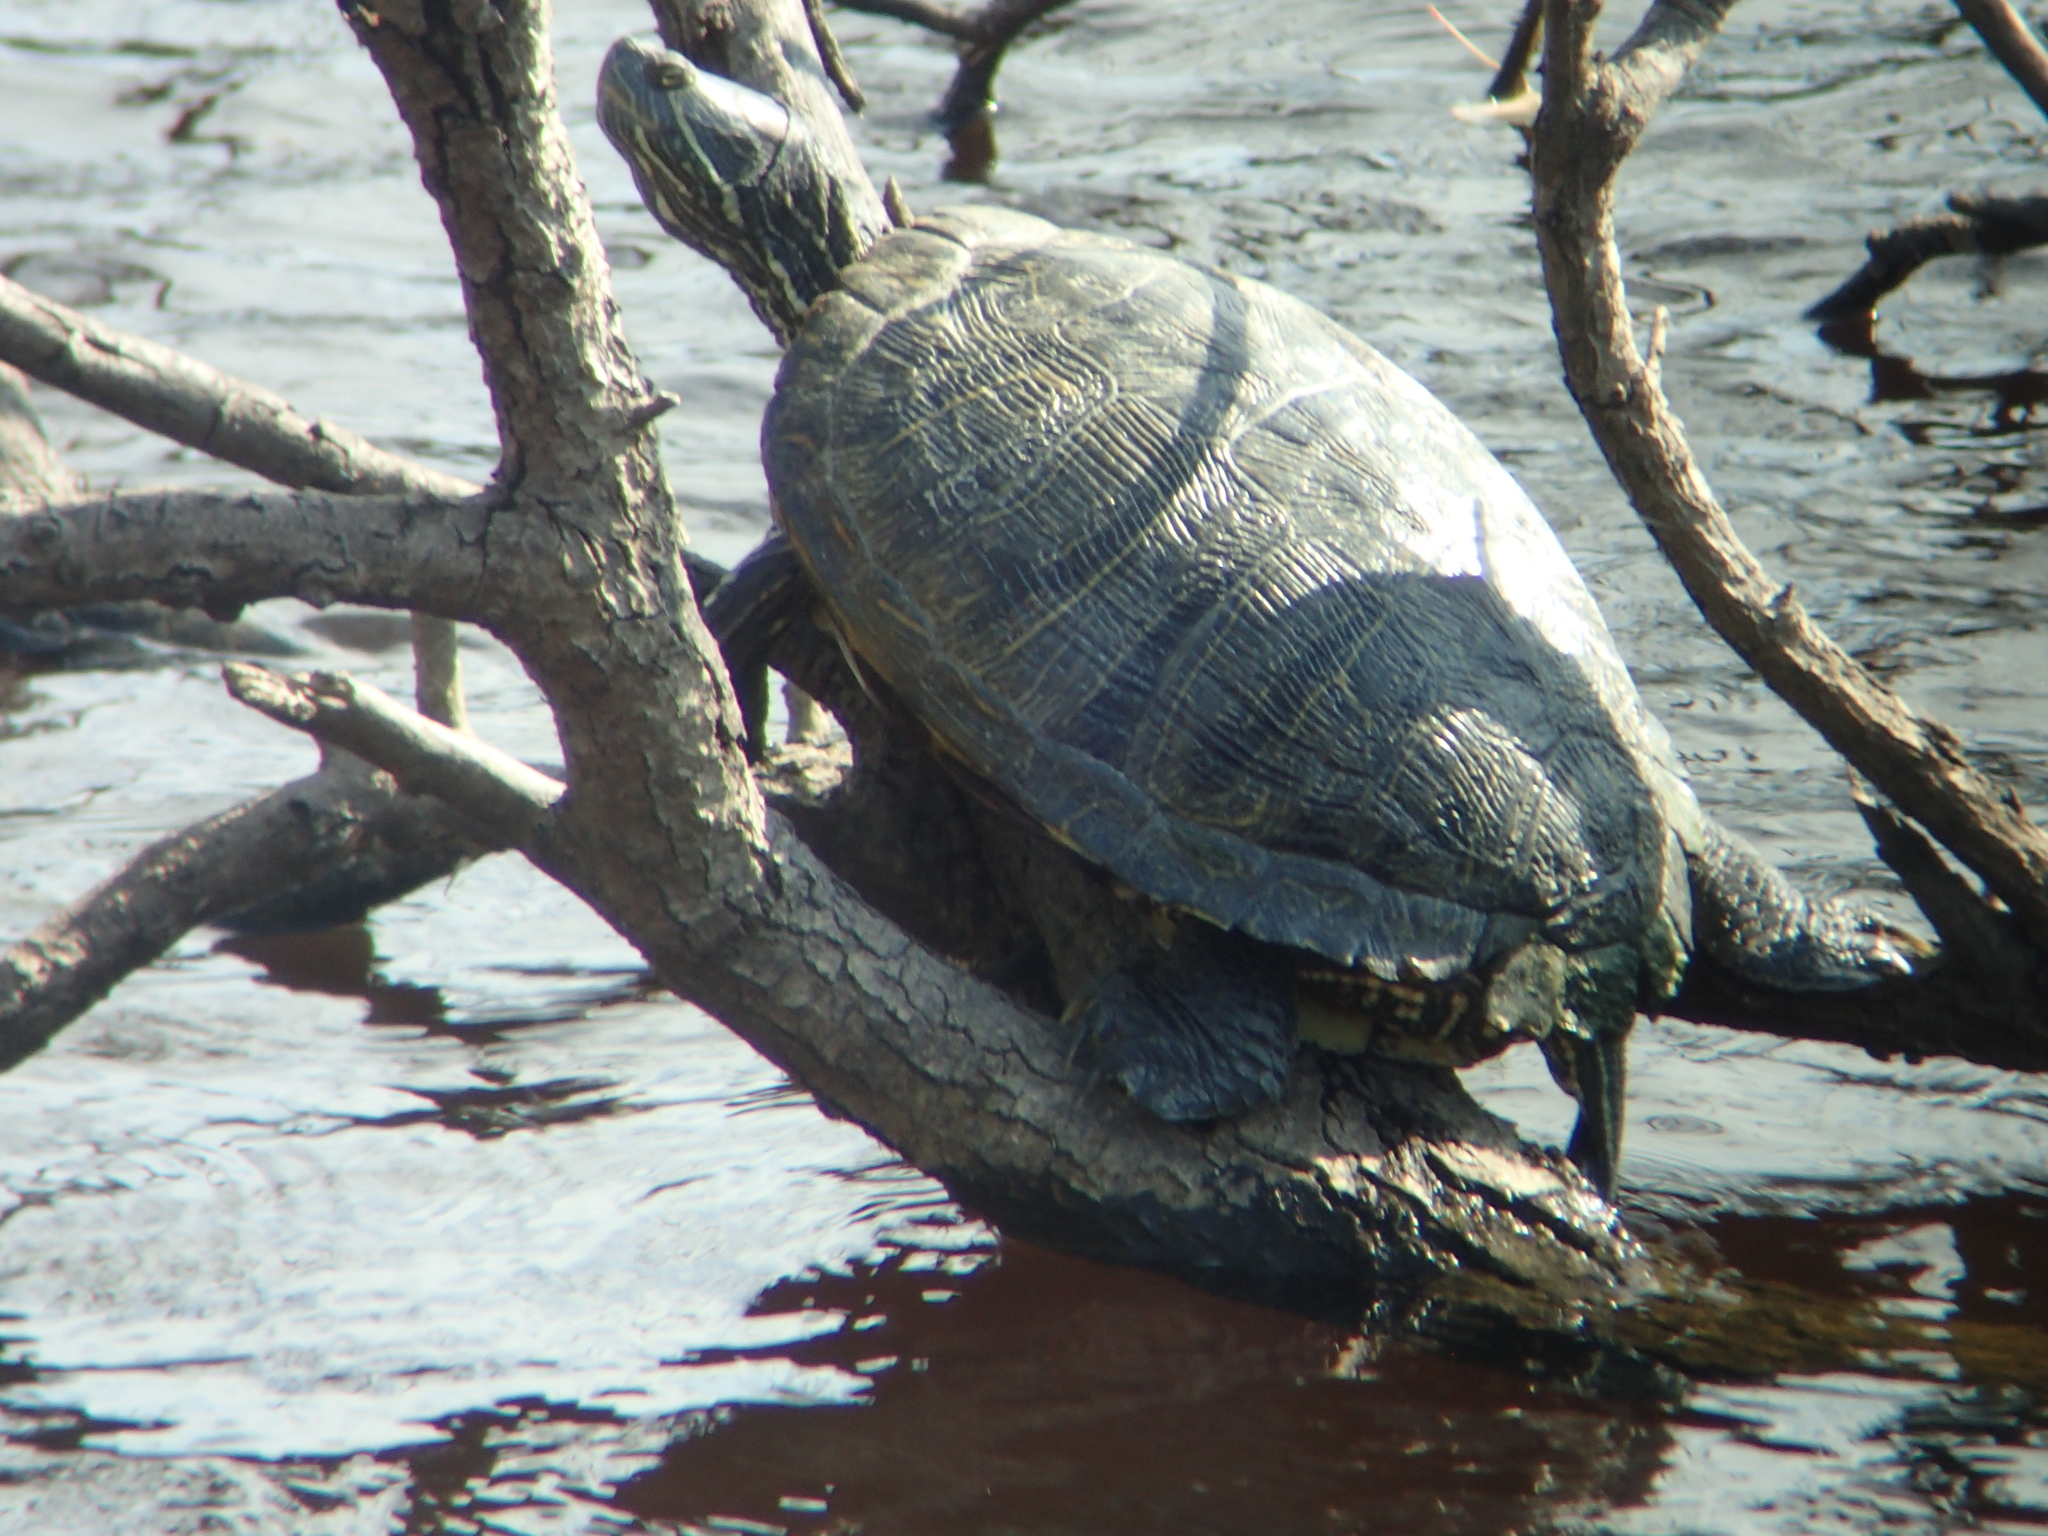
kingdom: Animalia
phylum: Chordata
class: Testudines
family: Emydidae
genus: Trachemys
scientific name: Trachemys scripta
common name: Slider
